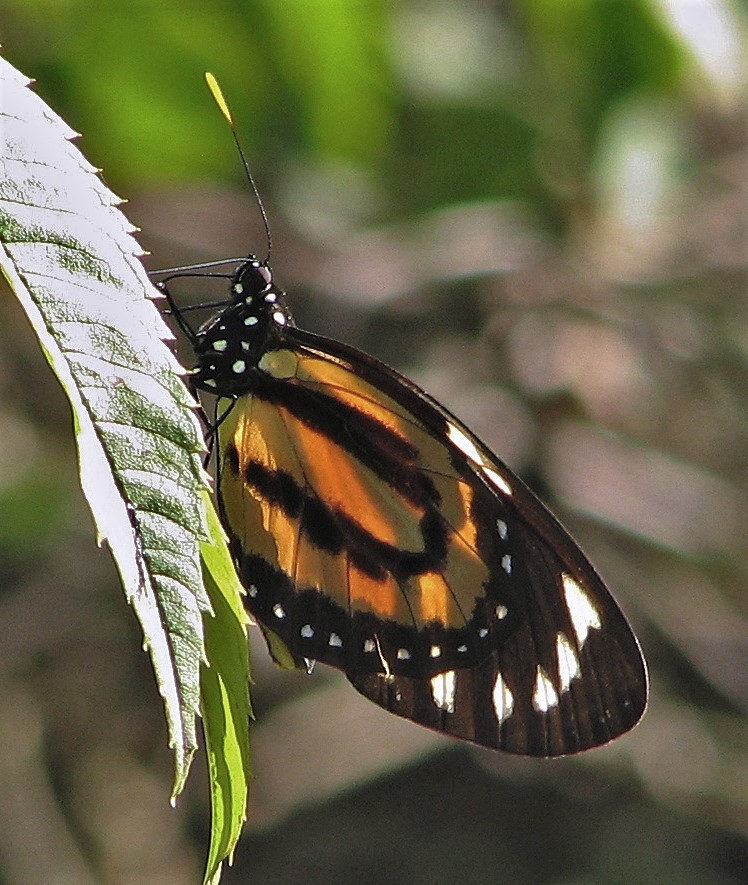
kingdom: Animalia
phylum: Arthropoda
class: Insecta
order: Lepidoptera
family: Nymphalidae
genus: Lycorea
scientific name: Lycorea cleobaea
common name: Tiger mimic-queen
